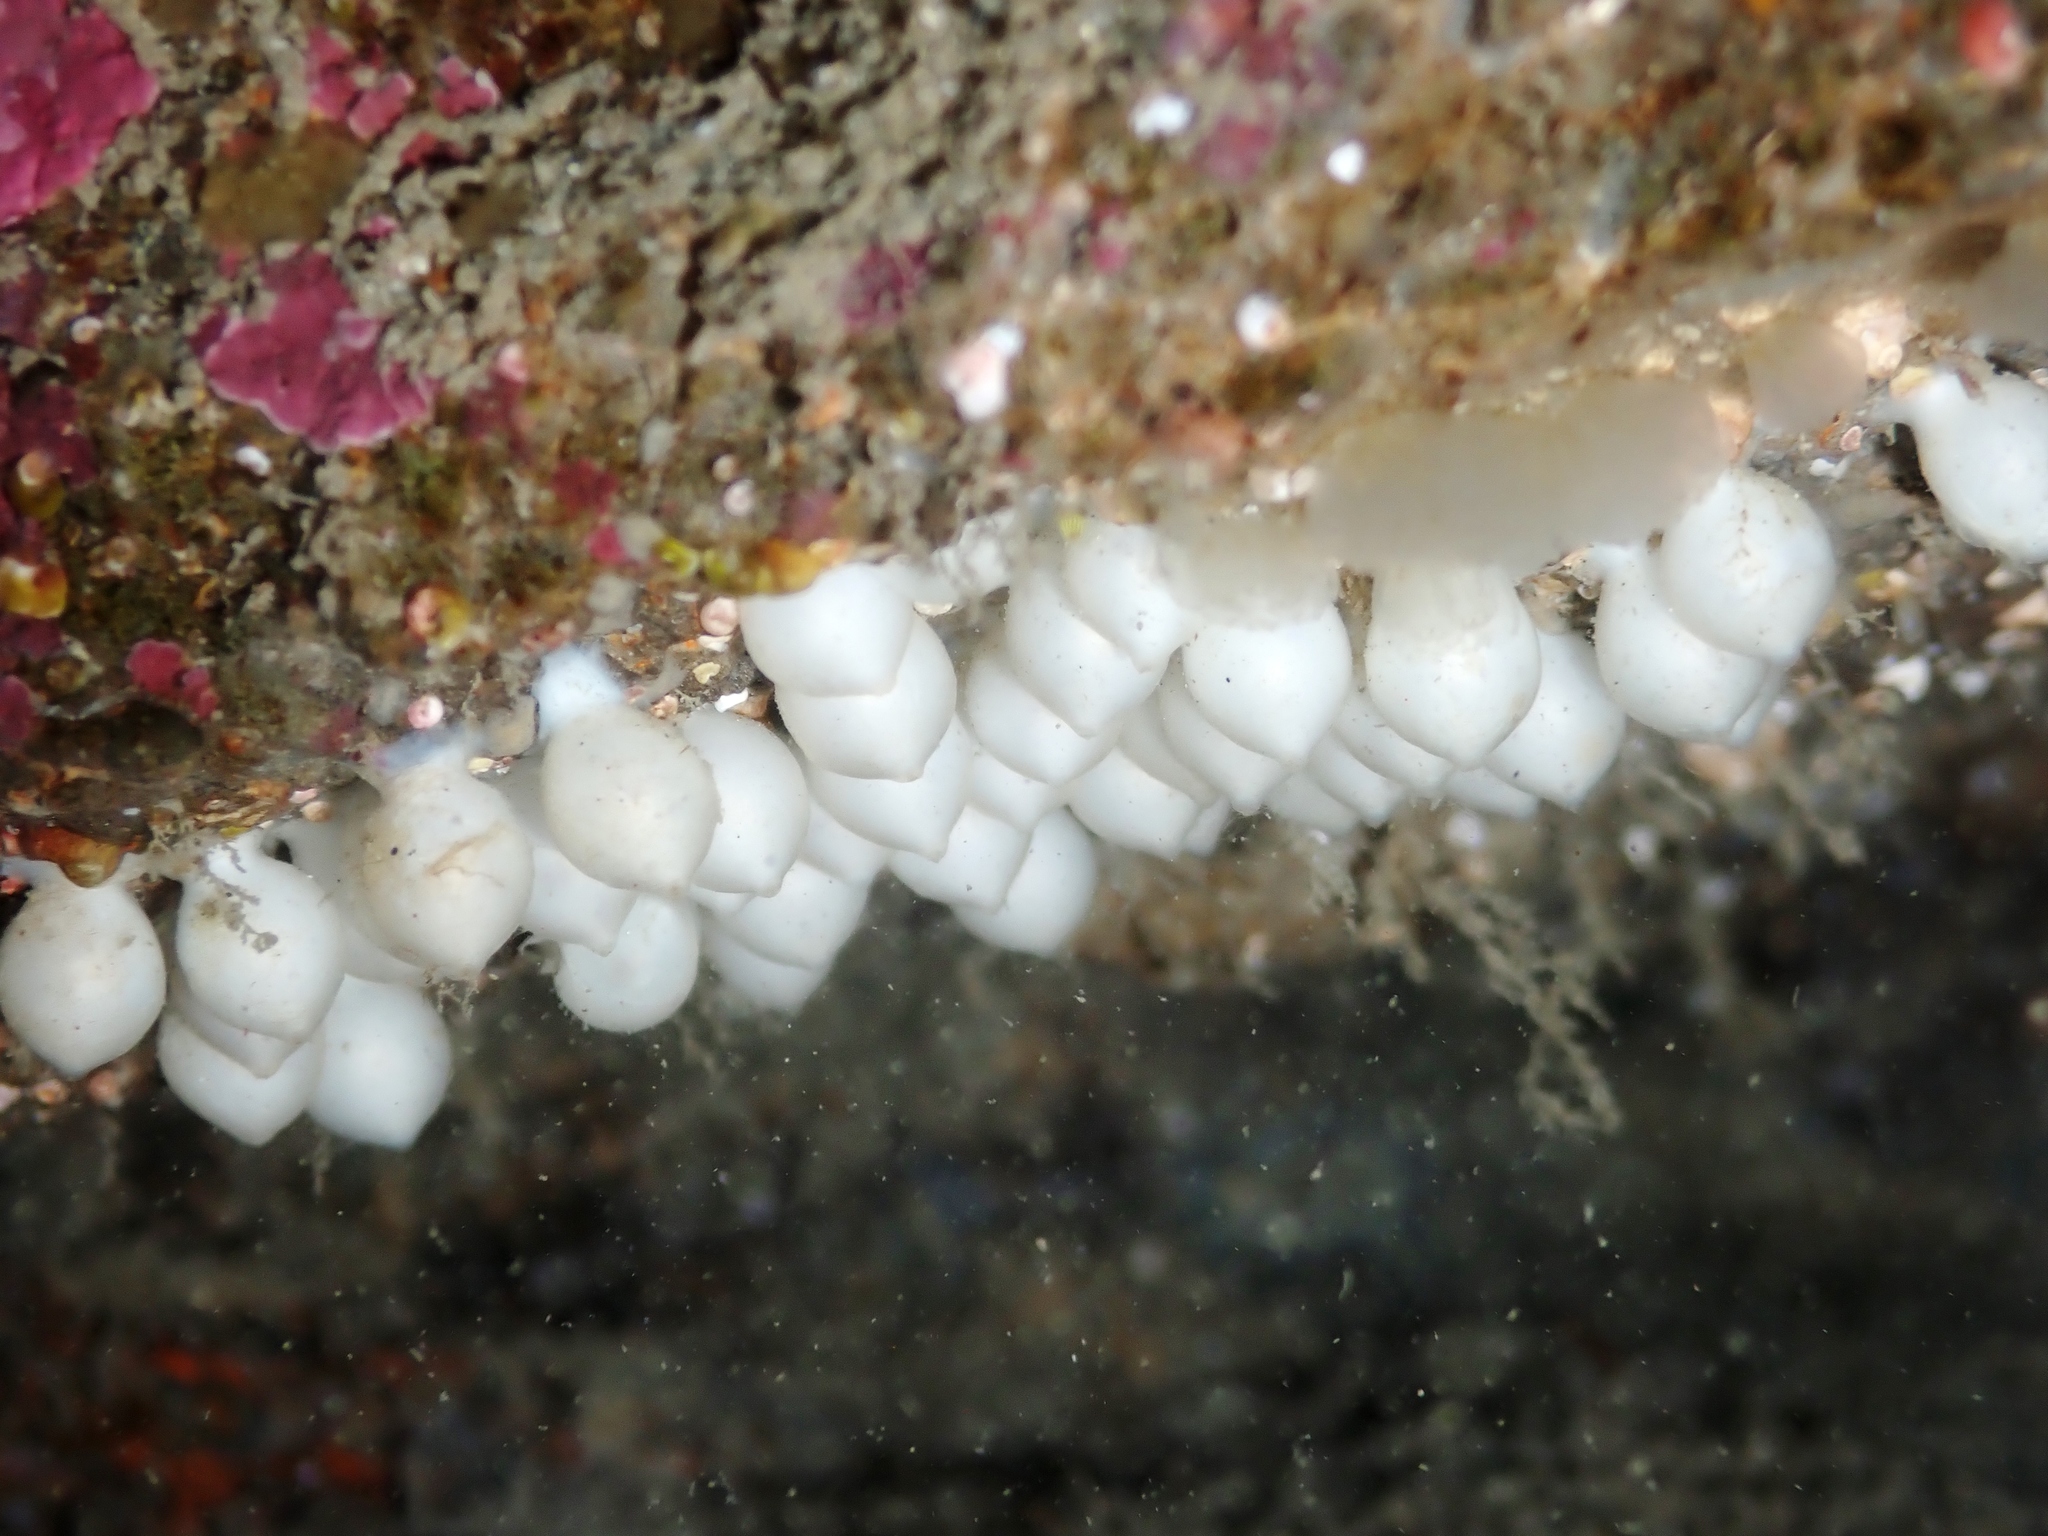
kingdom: Animalia
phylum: Mollusca
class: Cephalopoda
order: Sepiida
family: Sepiadariidae
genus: Sepioloidea
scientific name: Sepioloidea pacifica
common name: Pacific bobtail squid
